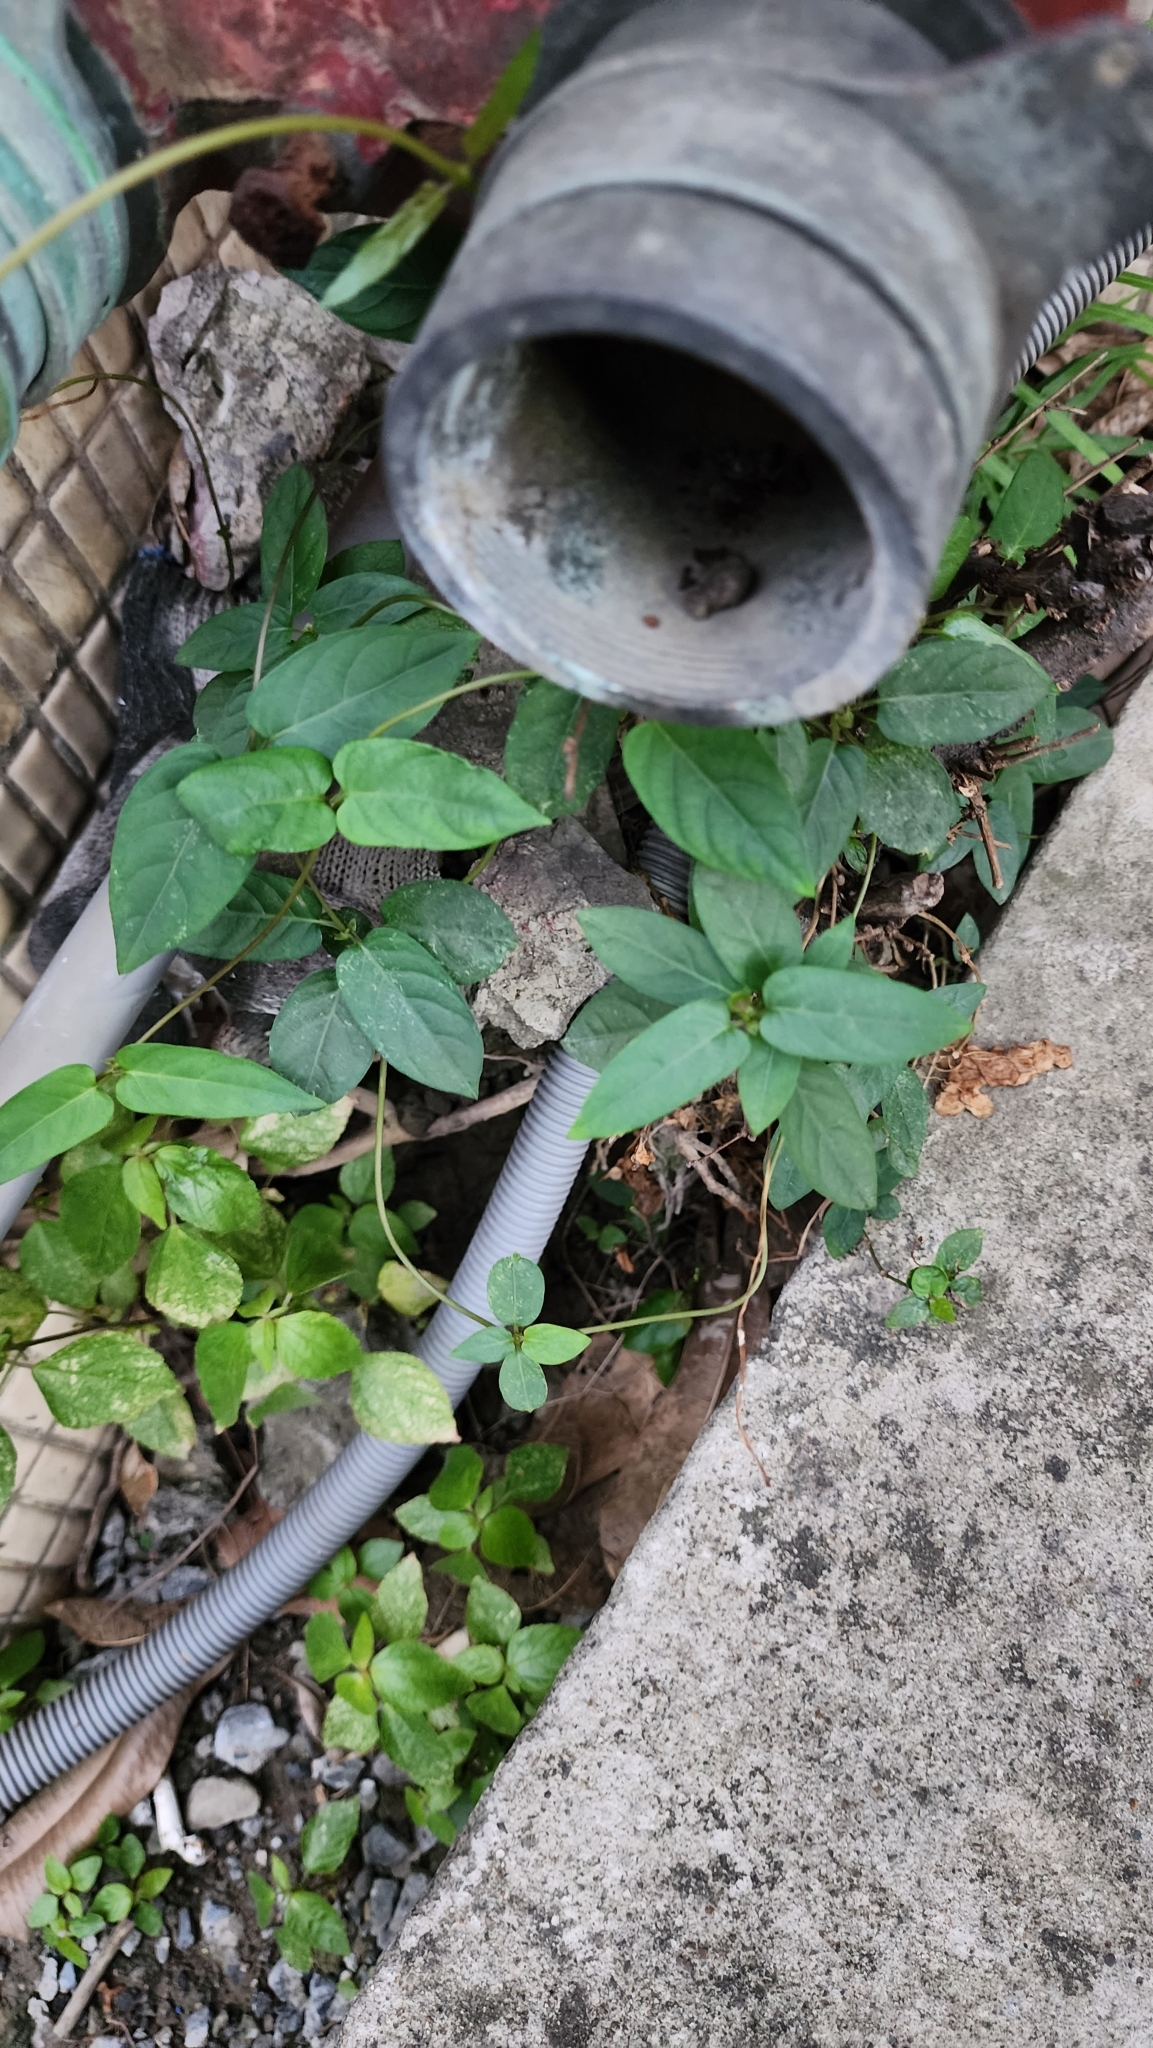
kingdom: Plantae
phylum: Tracheophyta
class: Magnoliopsida
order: Gentianales
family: Rubiaceae
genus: Paederia
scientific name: Paederia foetida
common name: Stinkvine
